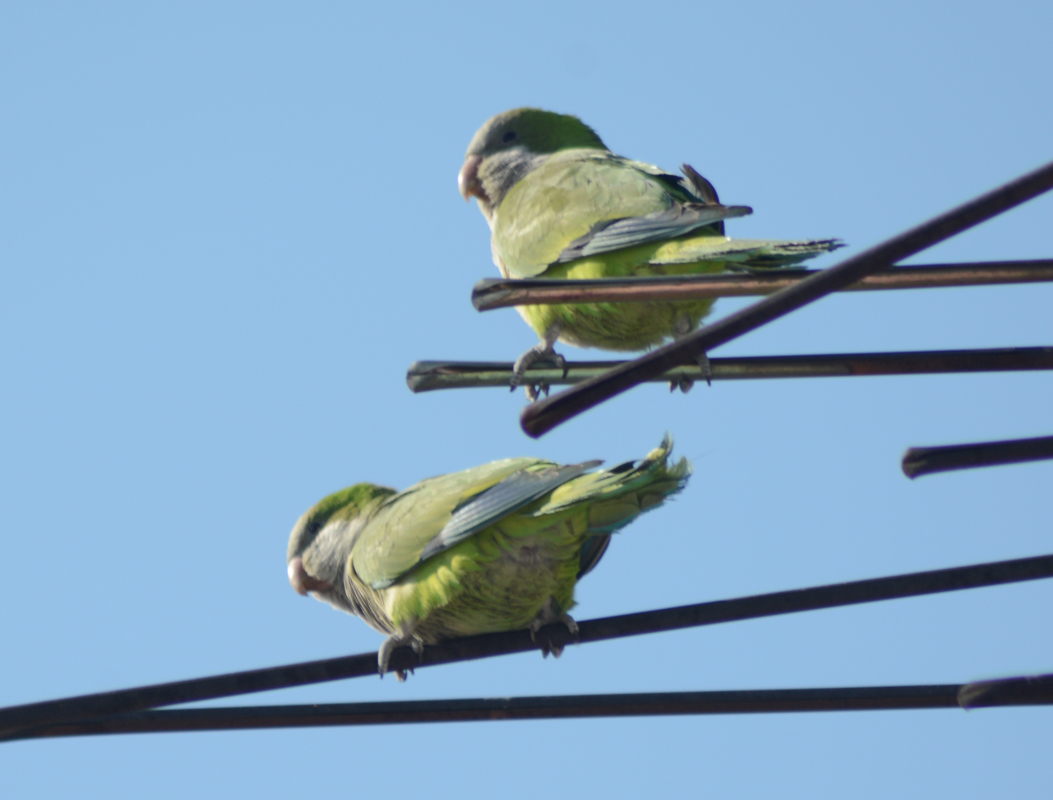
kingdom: Animalia
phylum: Chordata
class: Aves
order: Psittaciformes
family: Psittacidae
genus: Myiopsitta
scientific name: Myiopsitta monachus
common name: Monk parakeet
